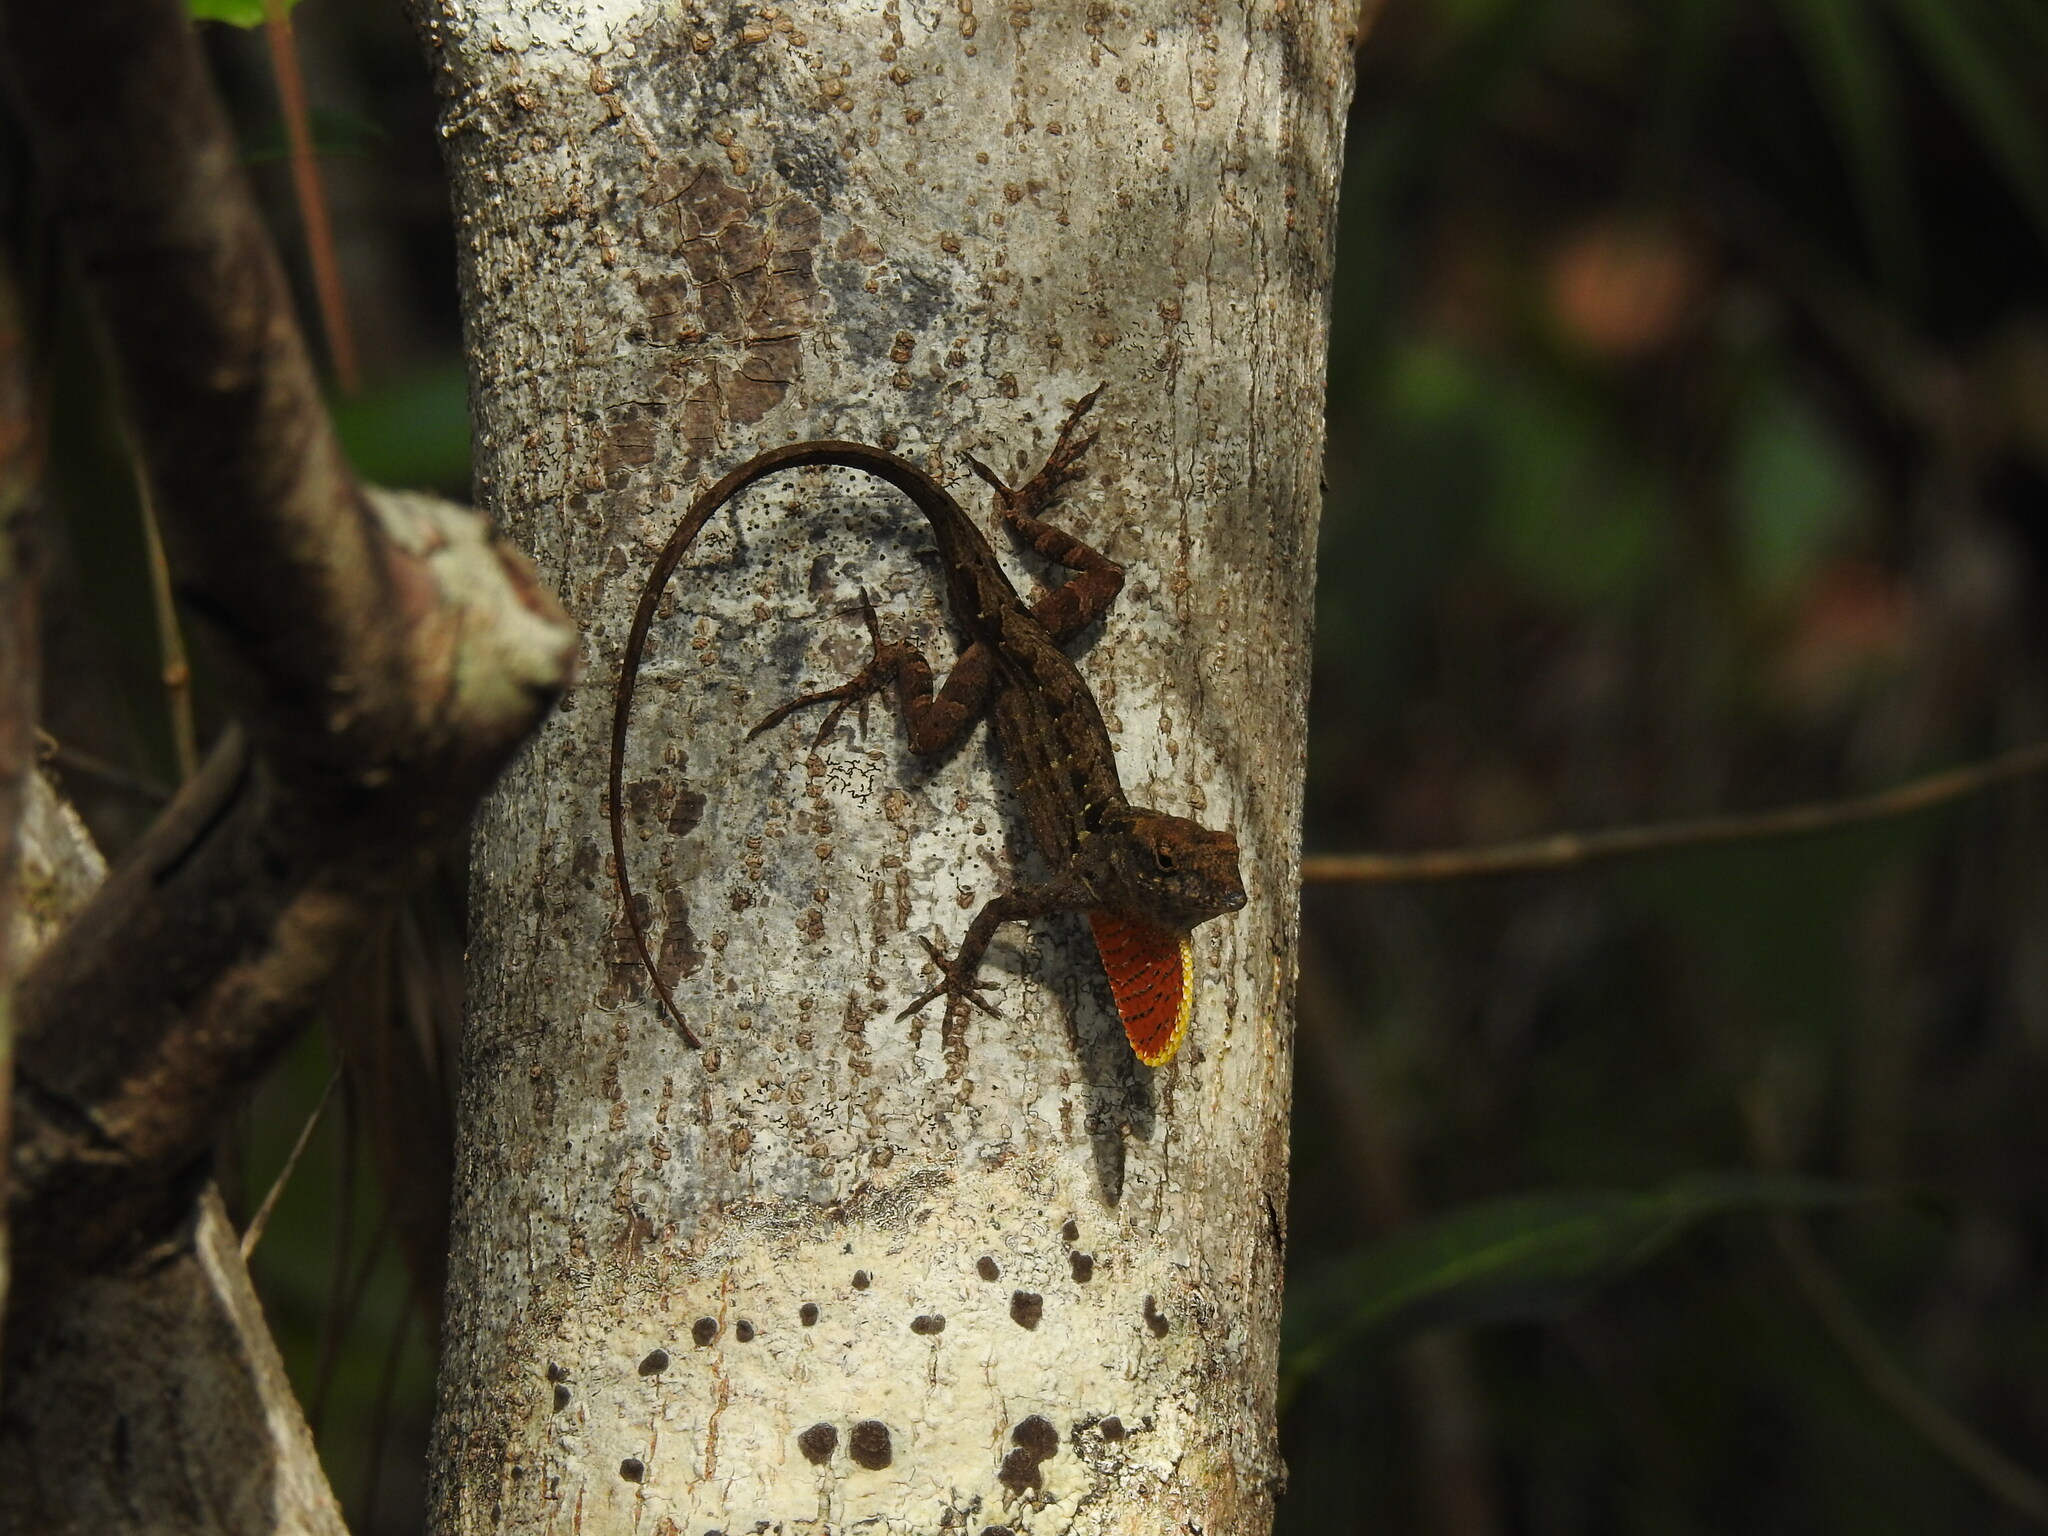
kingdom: Animalia
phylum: Chordata
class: Squamata
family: Dactyloidae
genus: Anolis
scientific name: Anolis sagrei
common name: Brown anole
